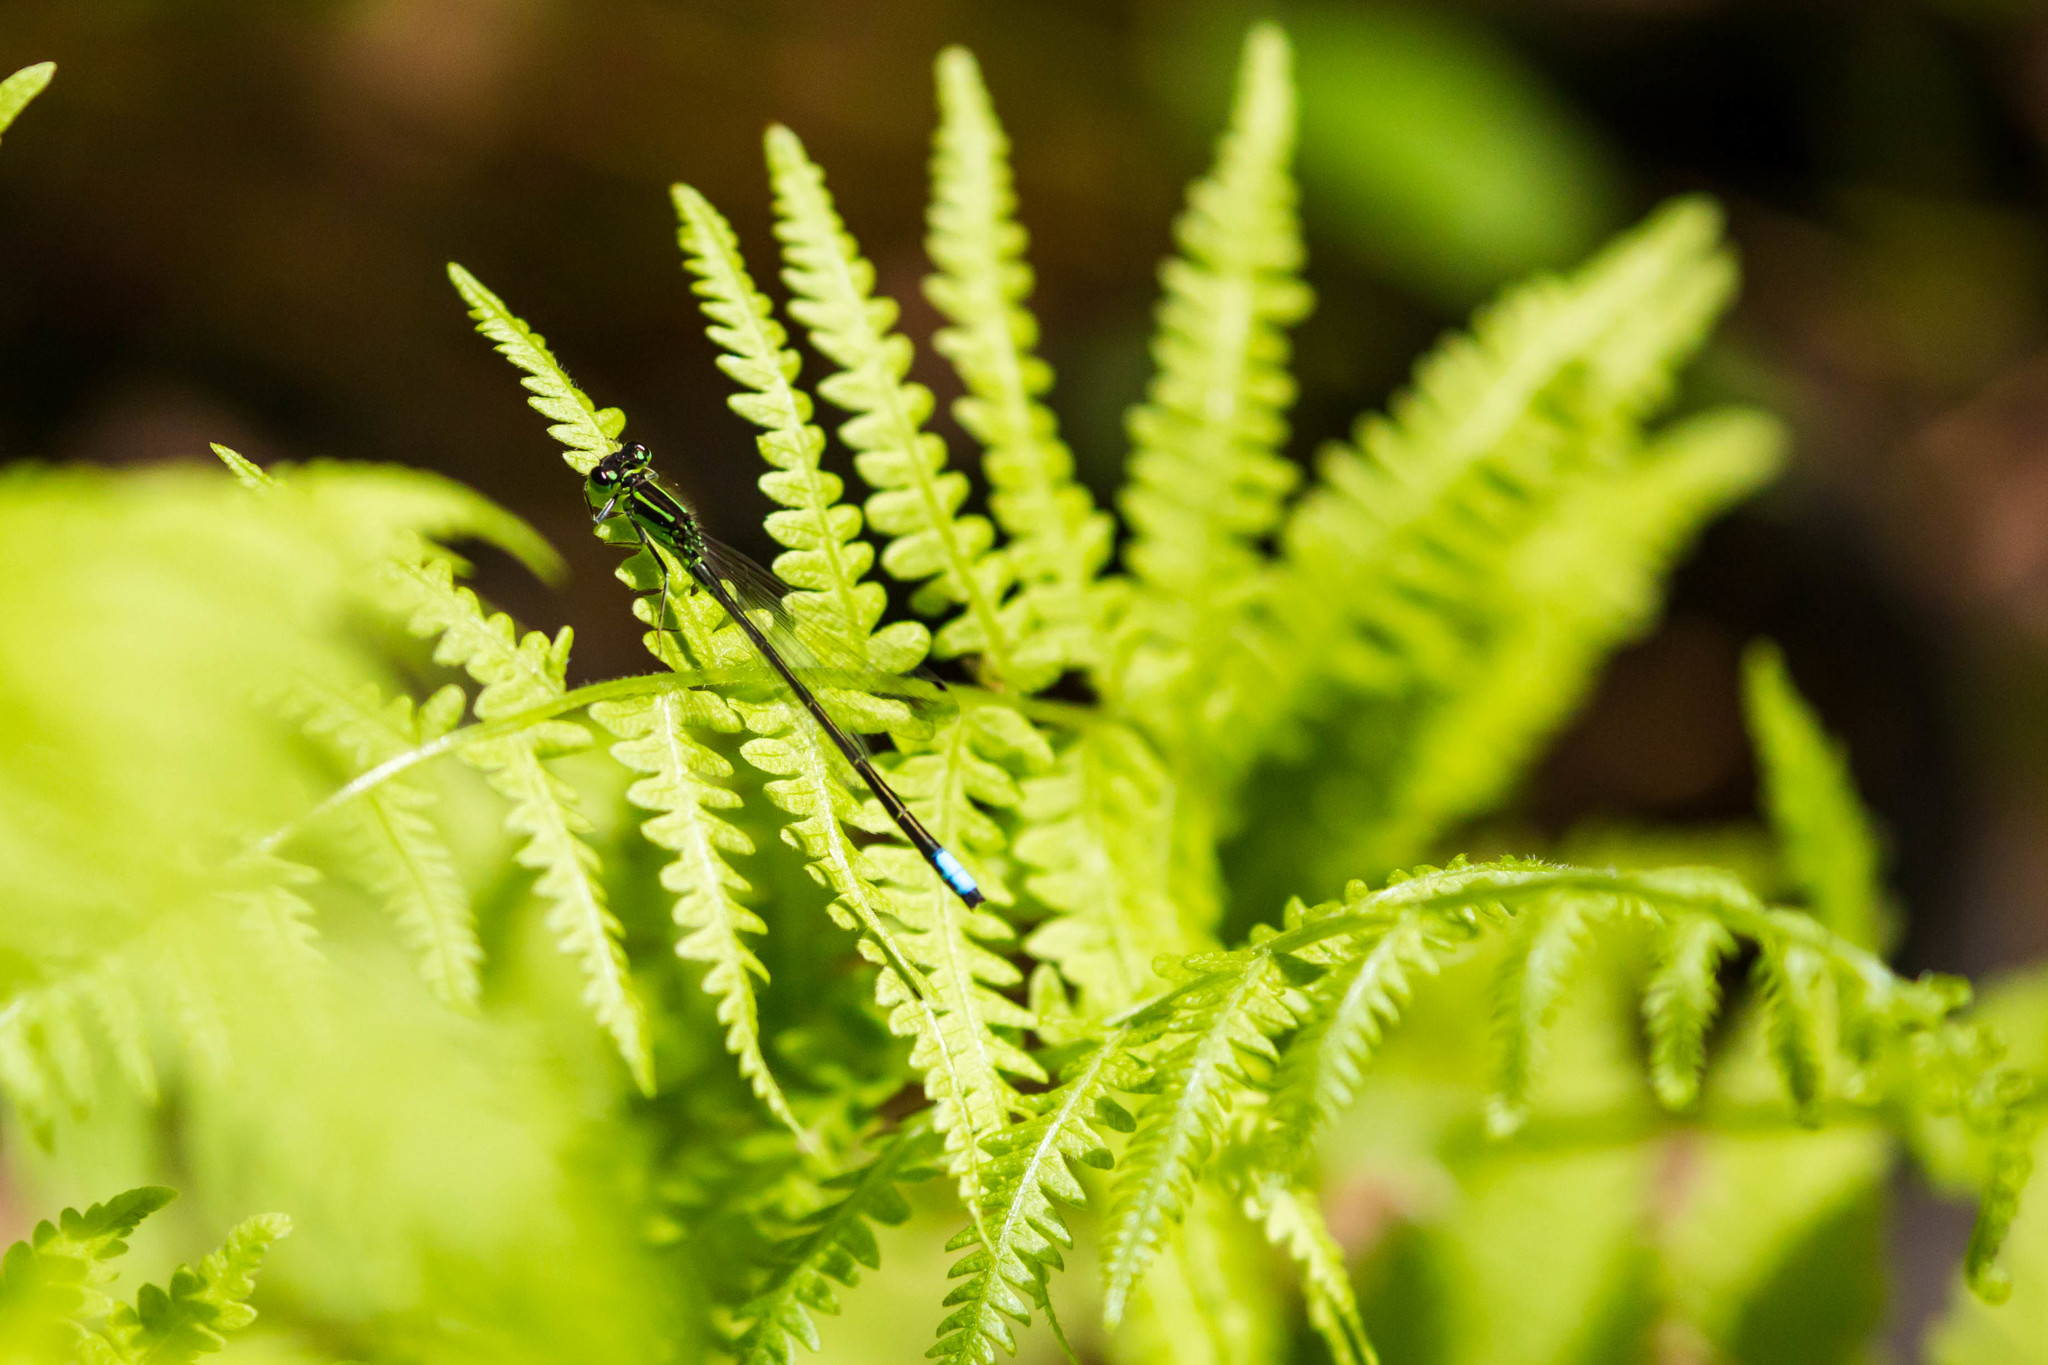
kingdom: Animalia
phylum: Arthropoda
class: Insecta
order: Odonata
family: Coenagrionidae
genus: Ischnura
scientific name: Ischnura verticalis
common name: Eastern forktail
